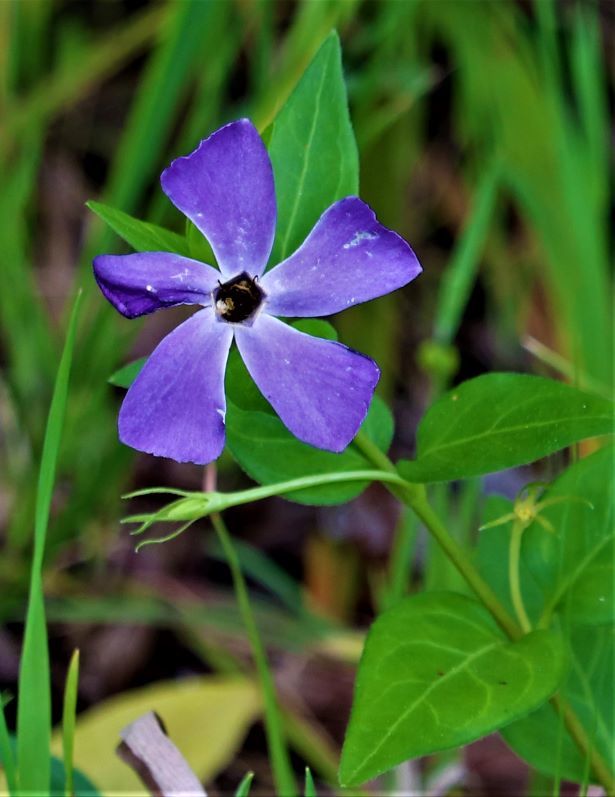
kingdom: Plantae
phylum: Tracheophyta
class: Magnoliopsida
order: Gentianales
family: Apocynaceae
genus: Vinca
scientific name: Vinca major
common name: Greater periwinkle
